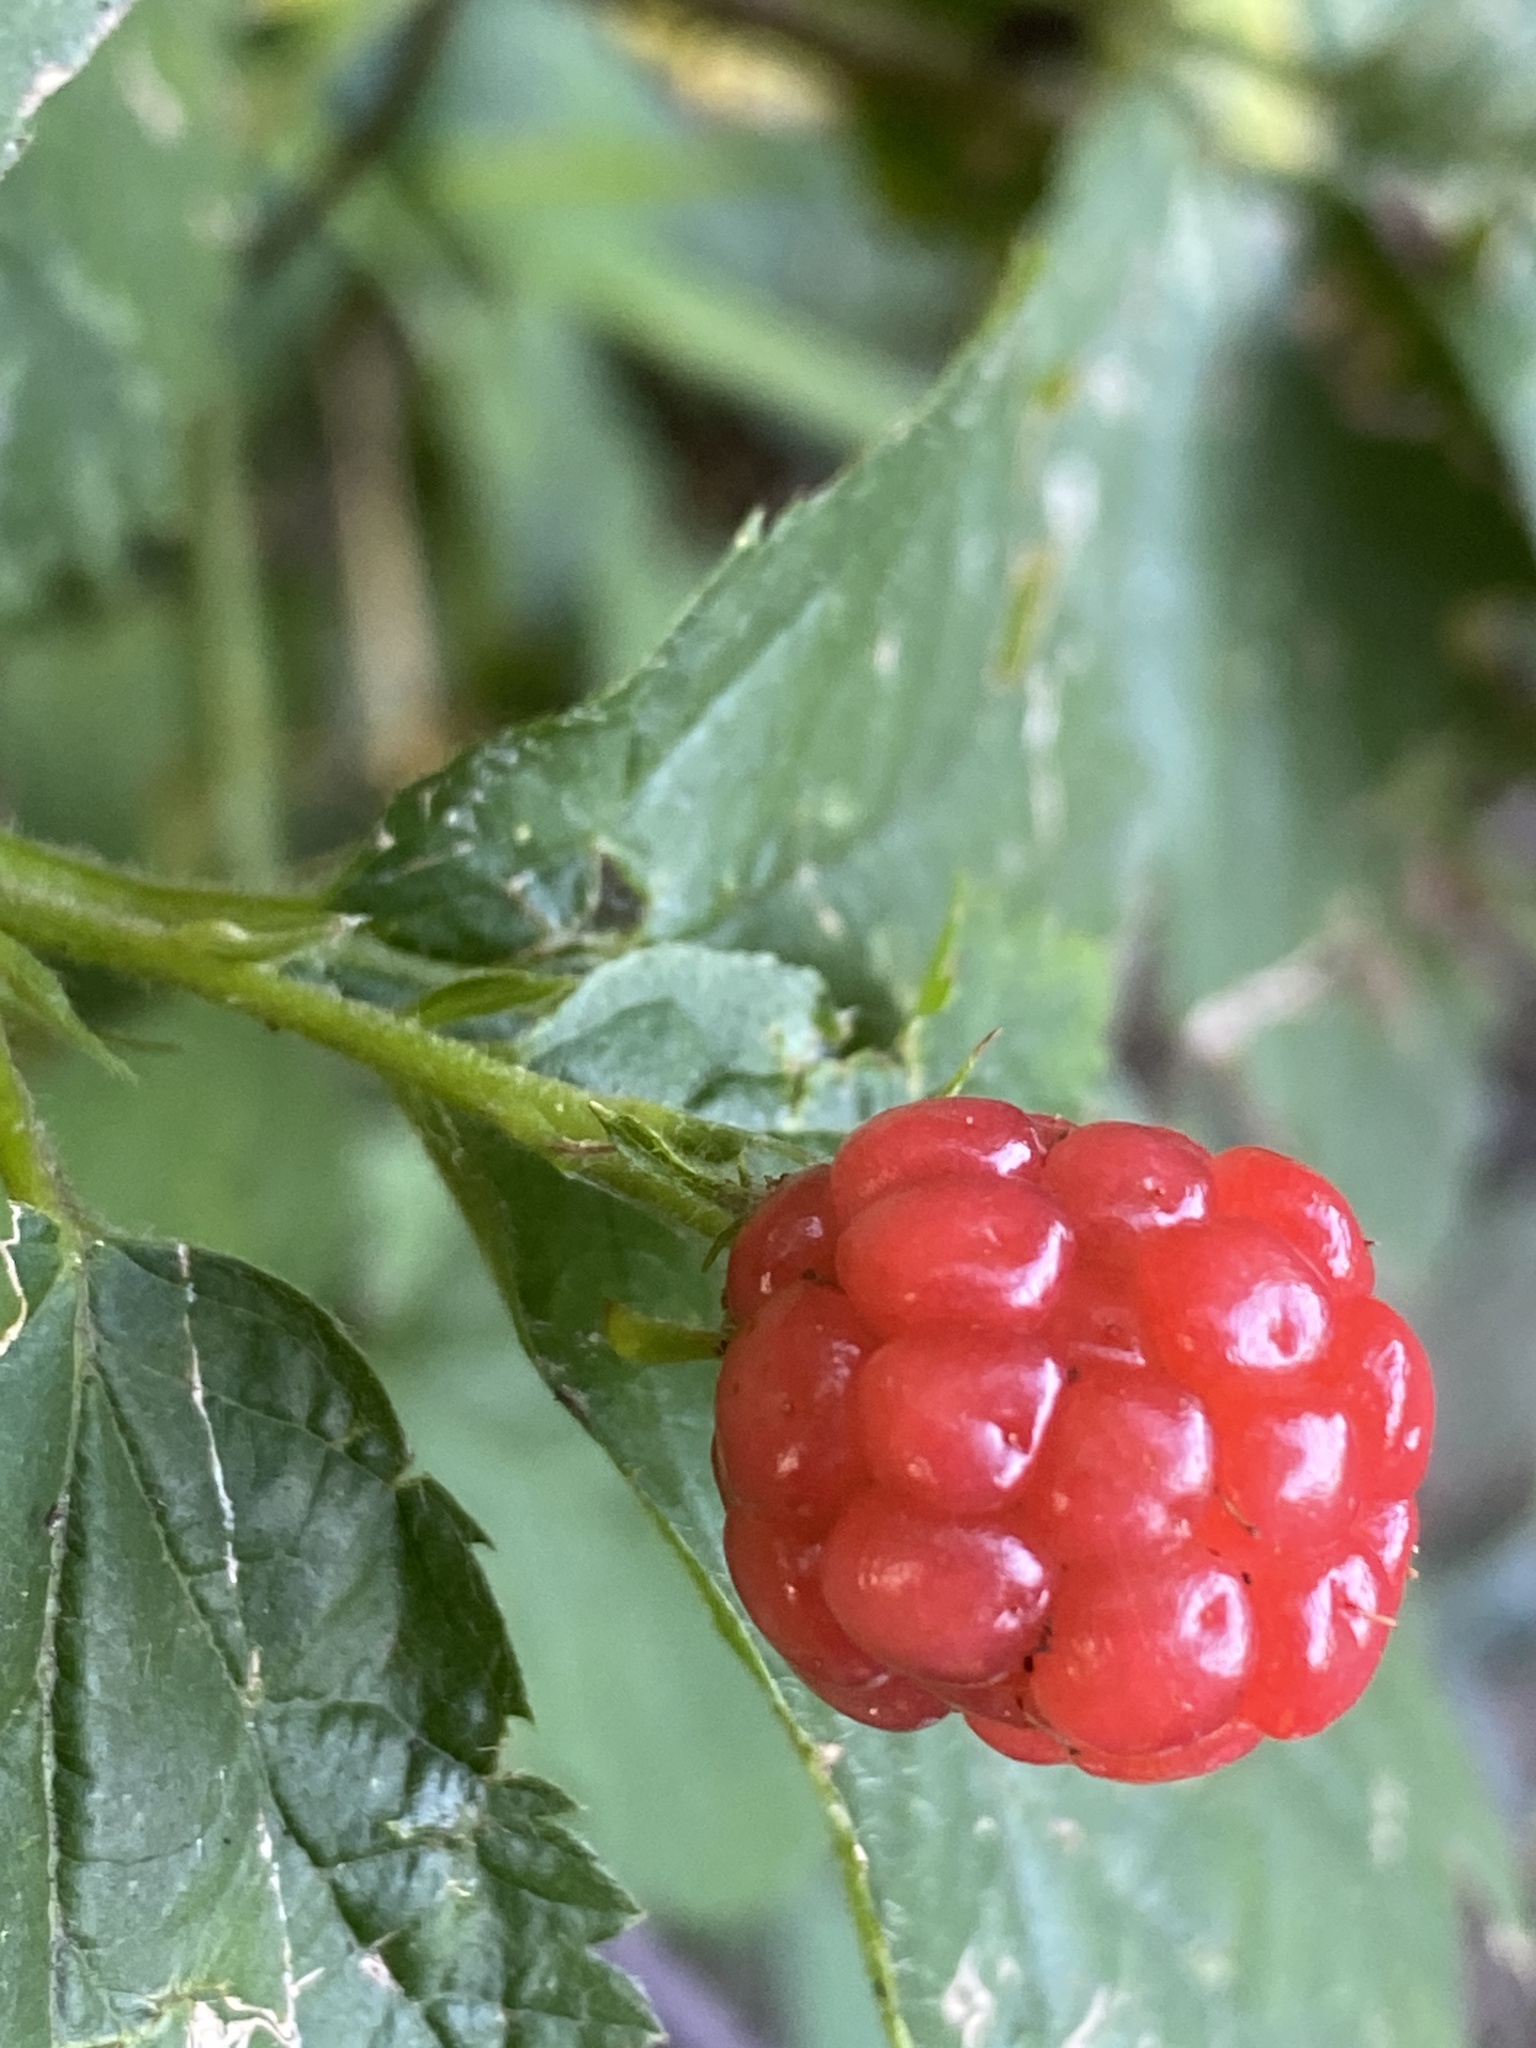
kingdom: Plantae
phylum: Tracheophyta
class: Magnoliopsida
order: Rosales
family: Rosaceae
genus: Rubus
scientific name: Rubus allegheniensis
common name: Allegheny blackberry
